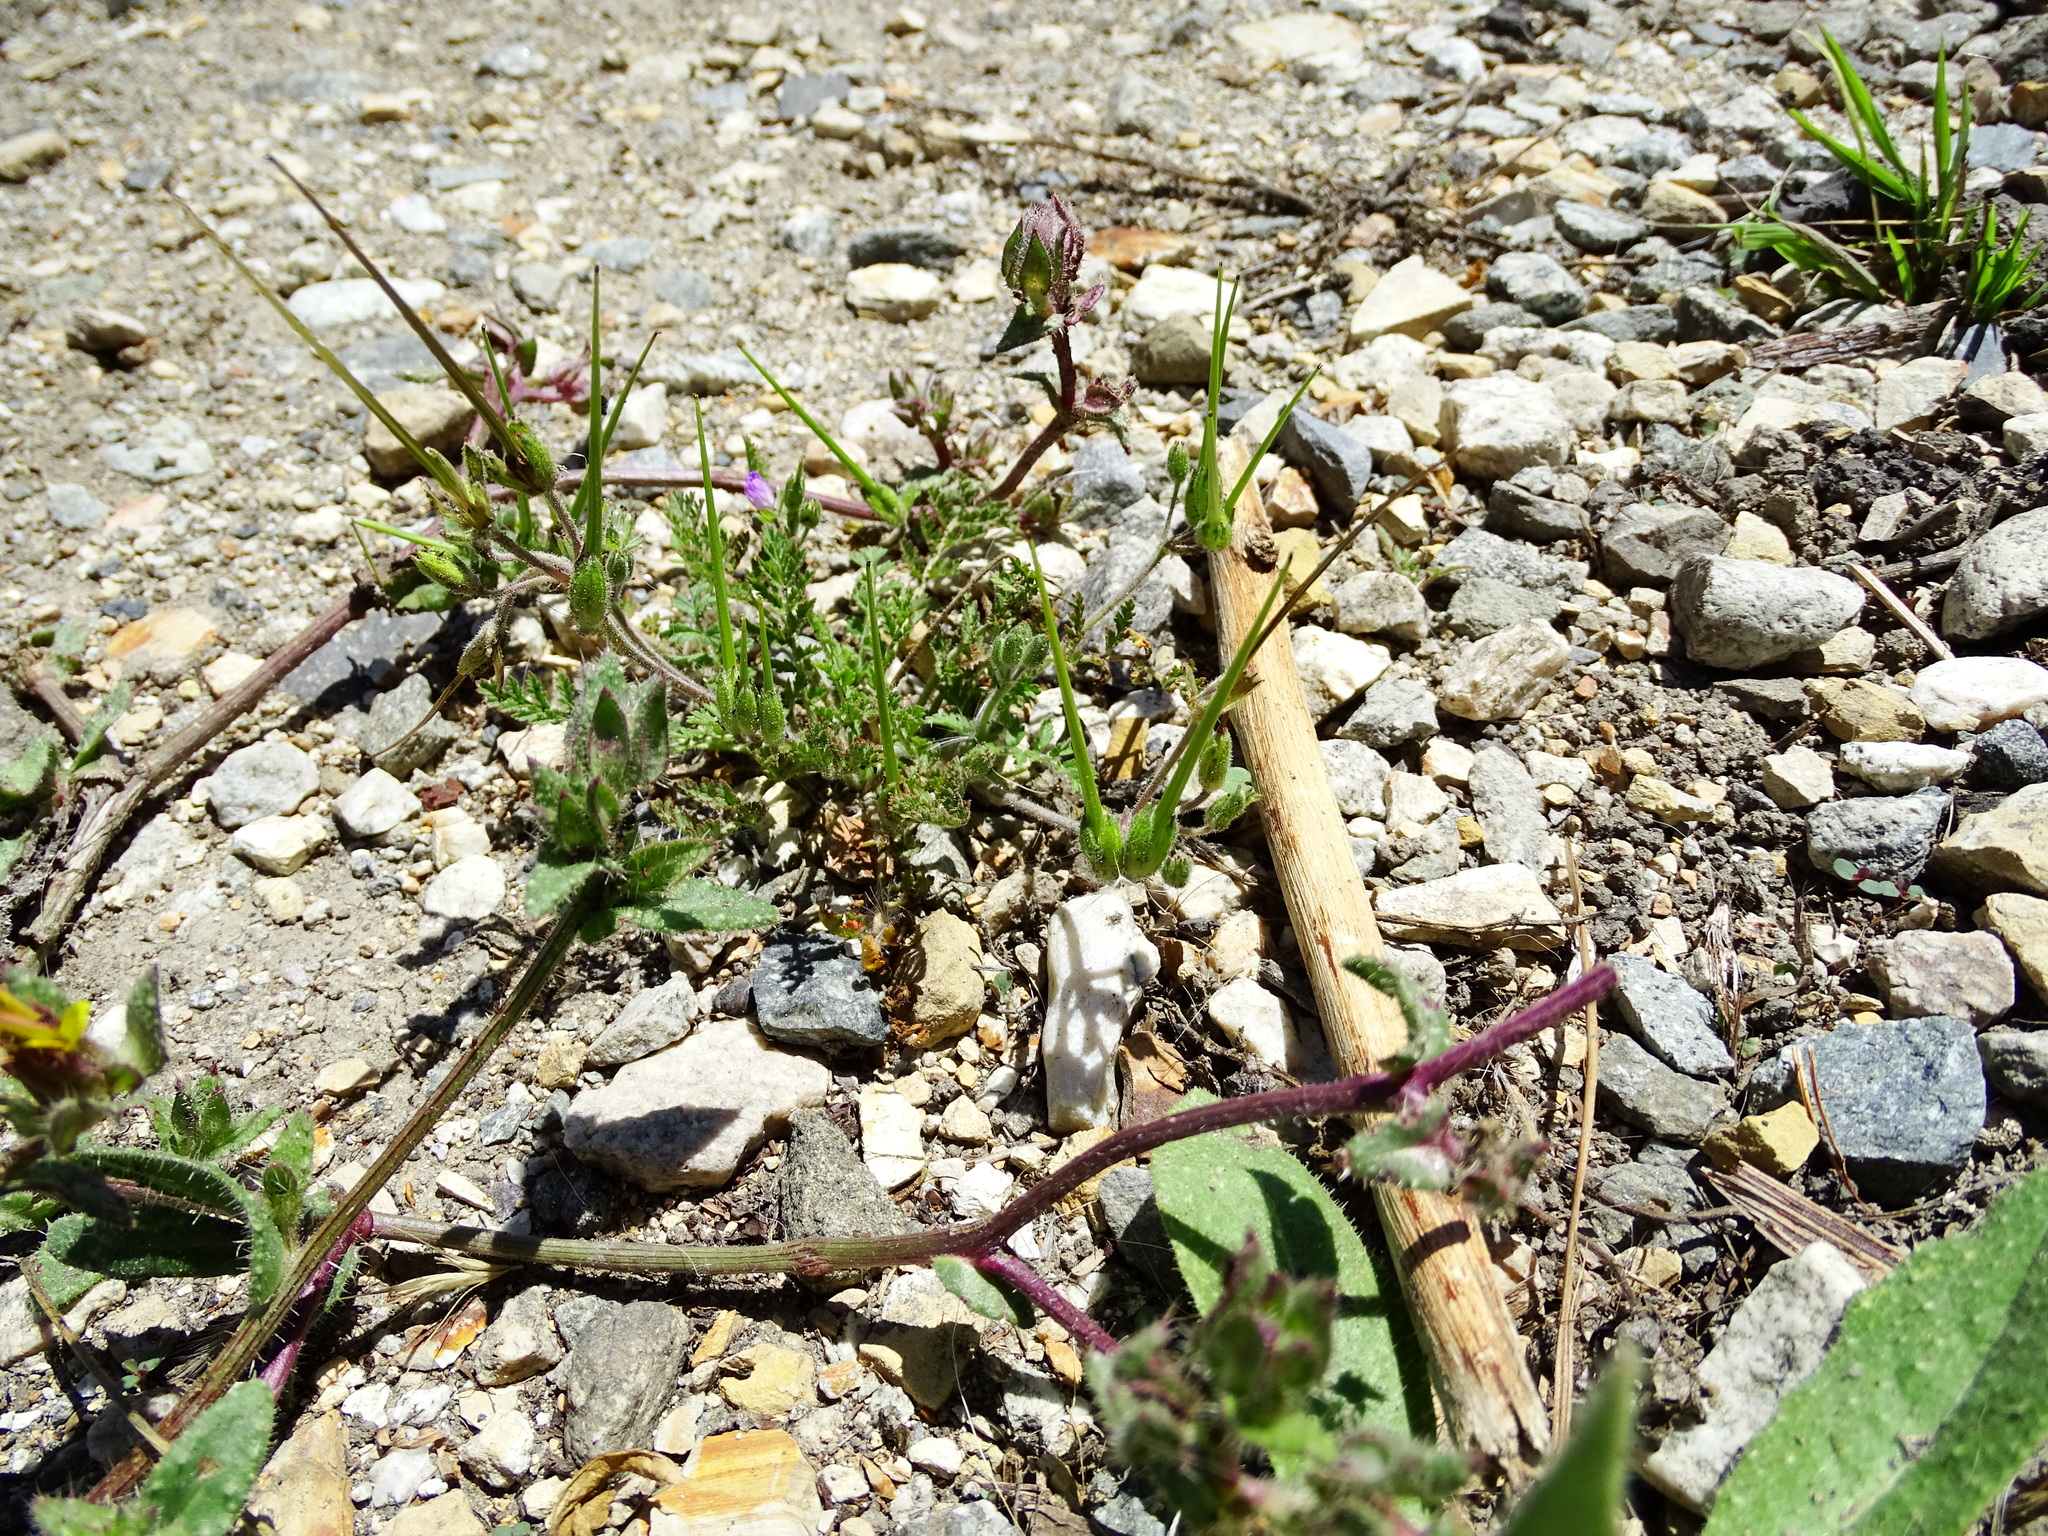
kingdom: Plantae
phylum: Tracheophyta
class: Magnoliopsida
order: Geraniales
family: Geraniaceae
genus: Erodium
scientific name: Erodium cicutarium
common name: Common stork's-bill
